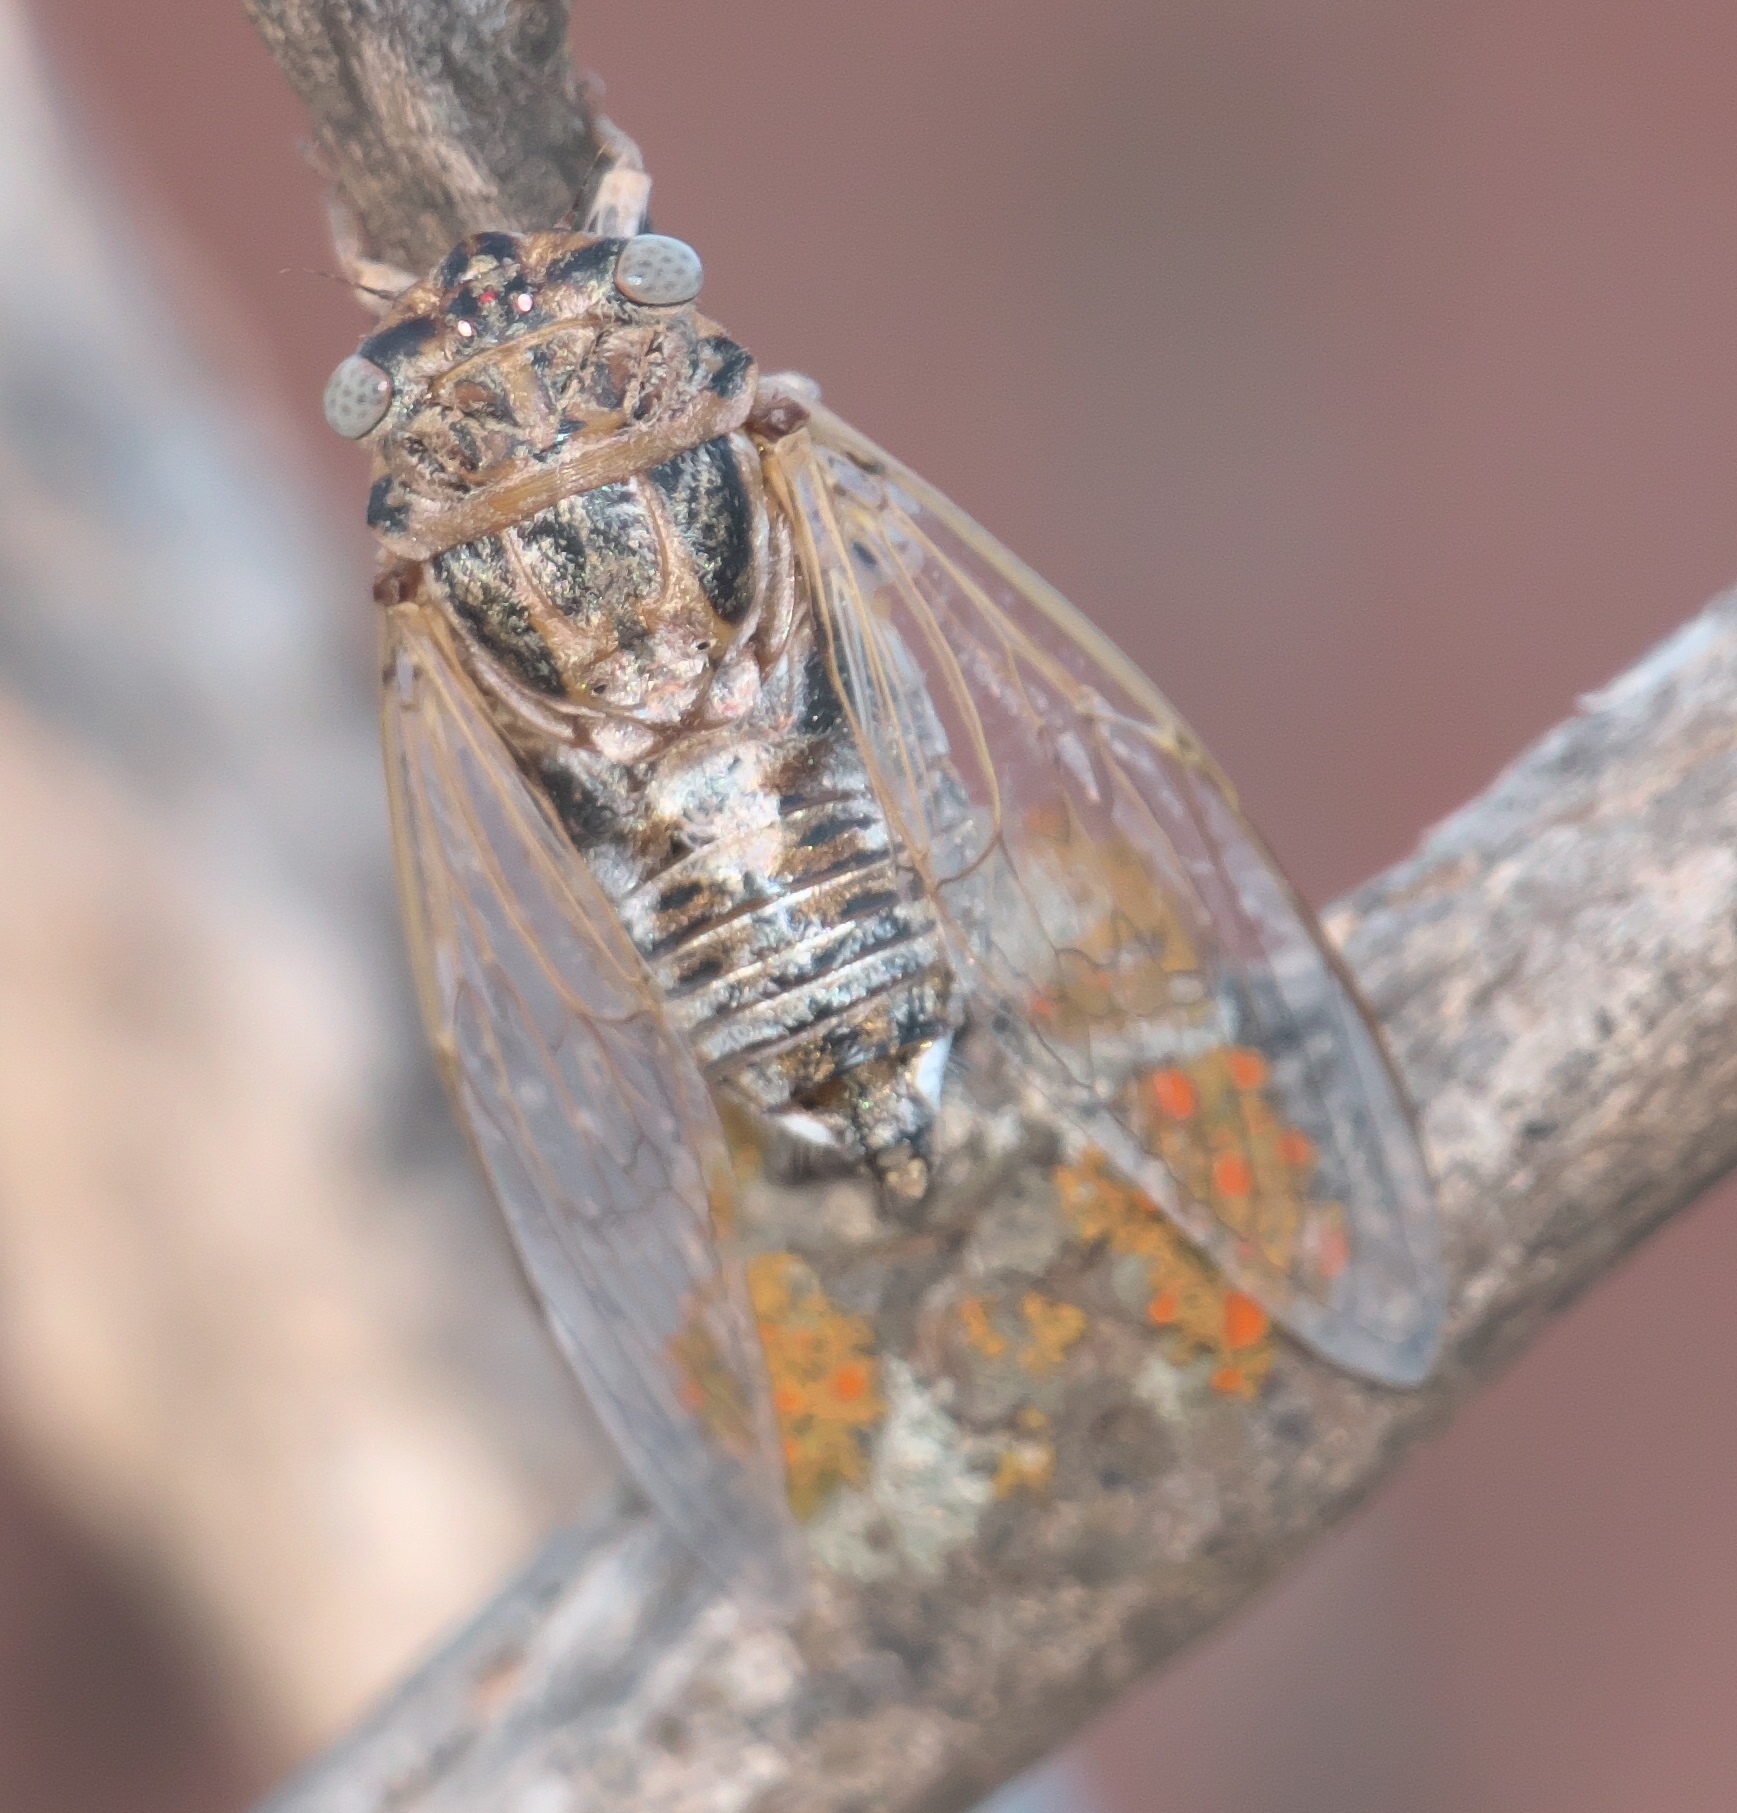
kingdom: Animalia
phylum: Arthropoda
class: Insecta
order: Hemiptera
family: Cicadidae
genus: Diceroprocta
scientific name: Diceroprocta eugraphica
